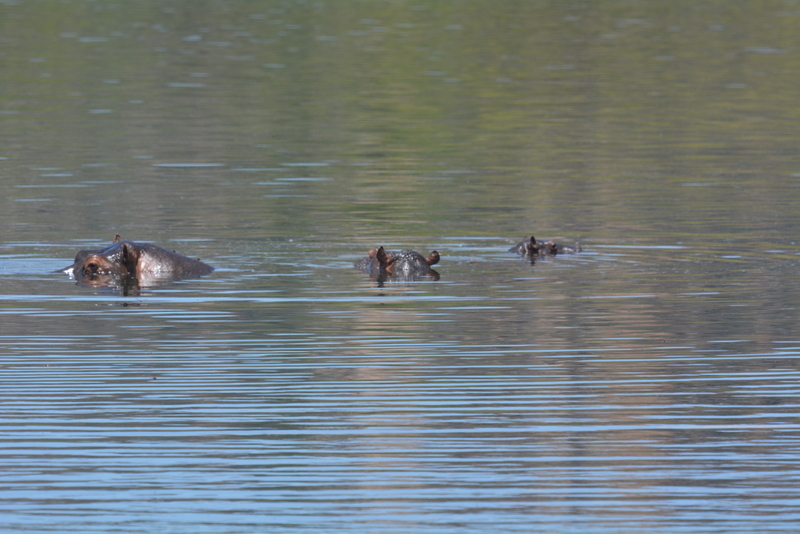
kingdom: Animalia
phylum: Chordata
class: Mammalia
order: Artiodactyla
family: Hippopotamidae
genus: Hippopotamus
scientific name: Hippopotamus amphibius
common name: Common hippopotamus
